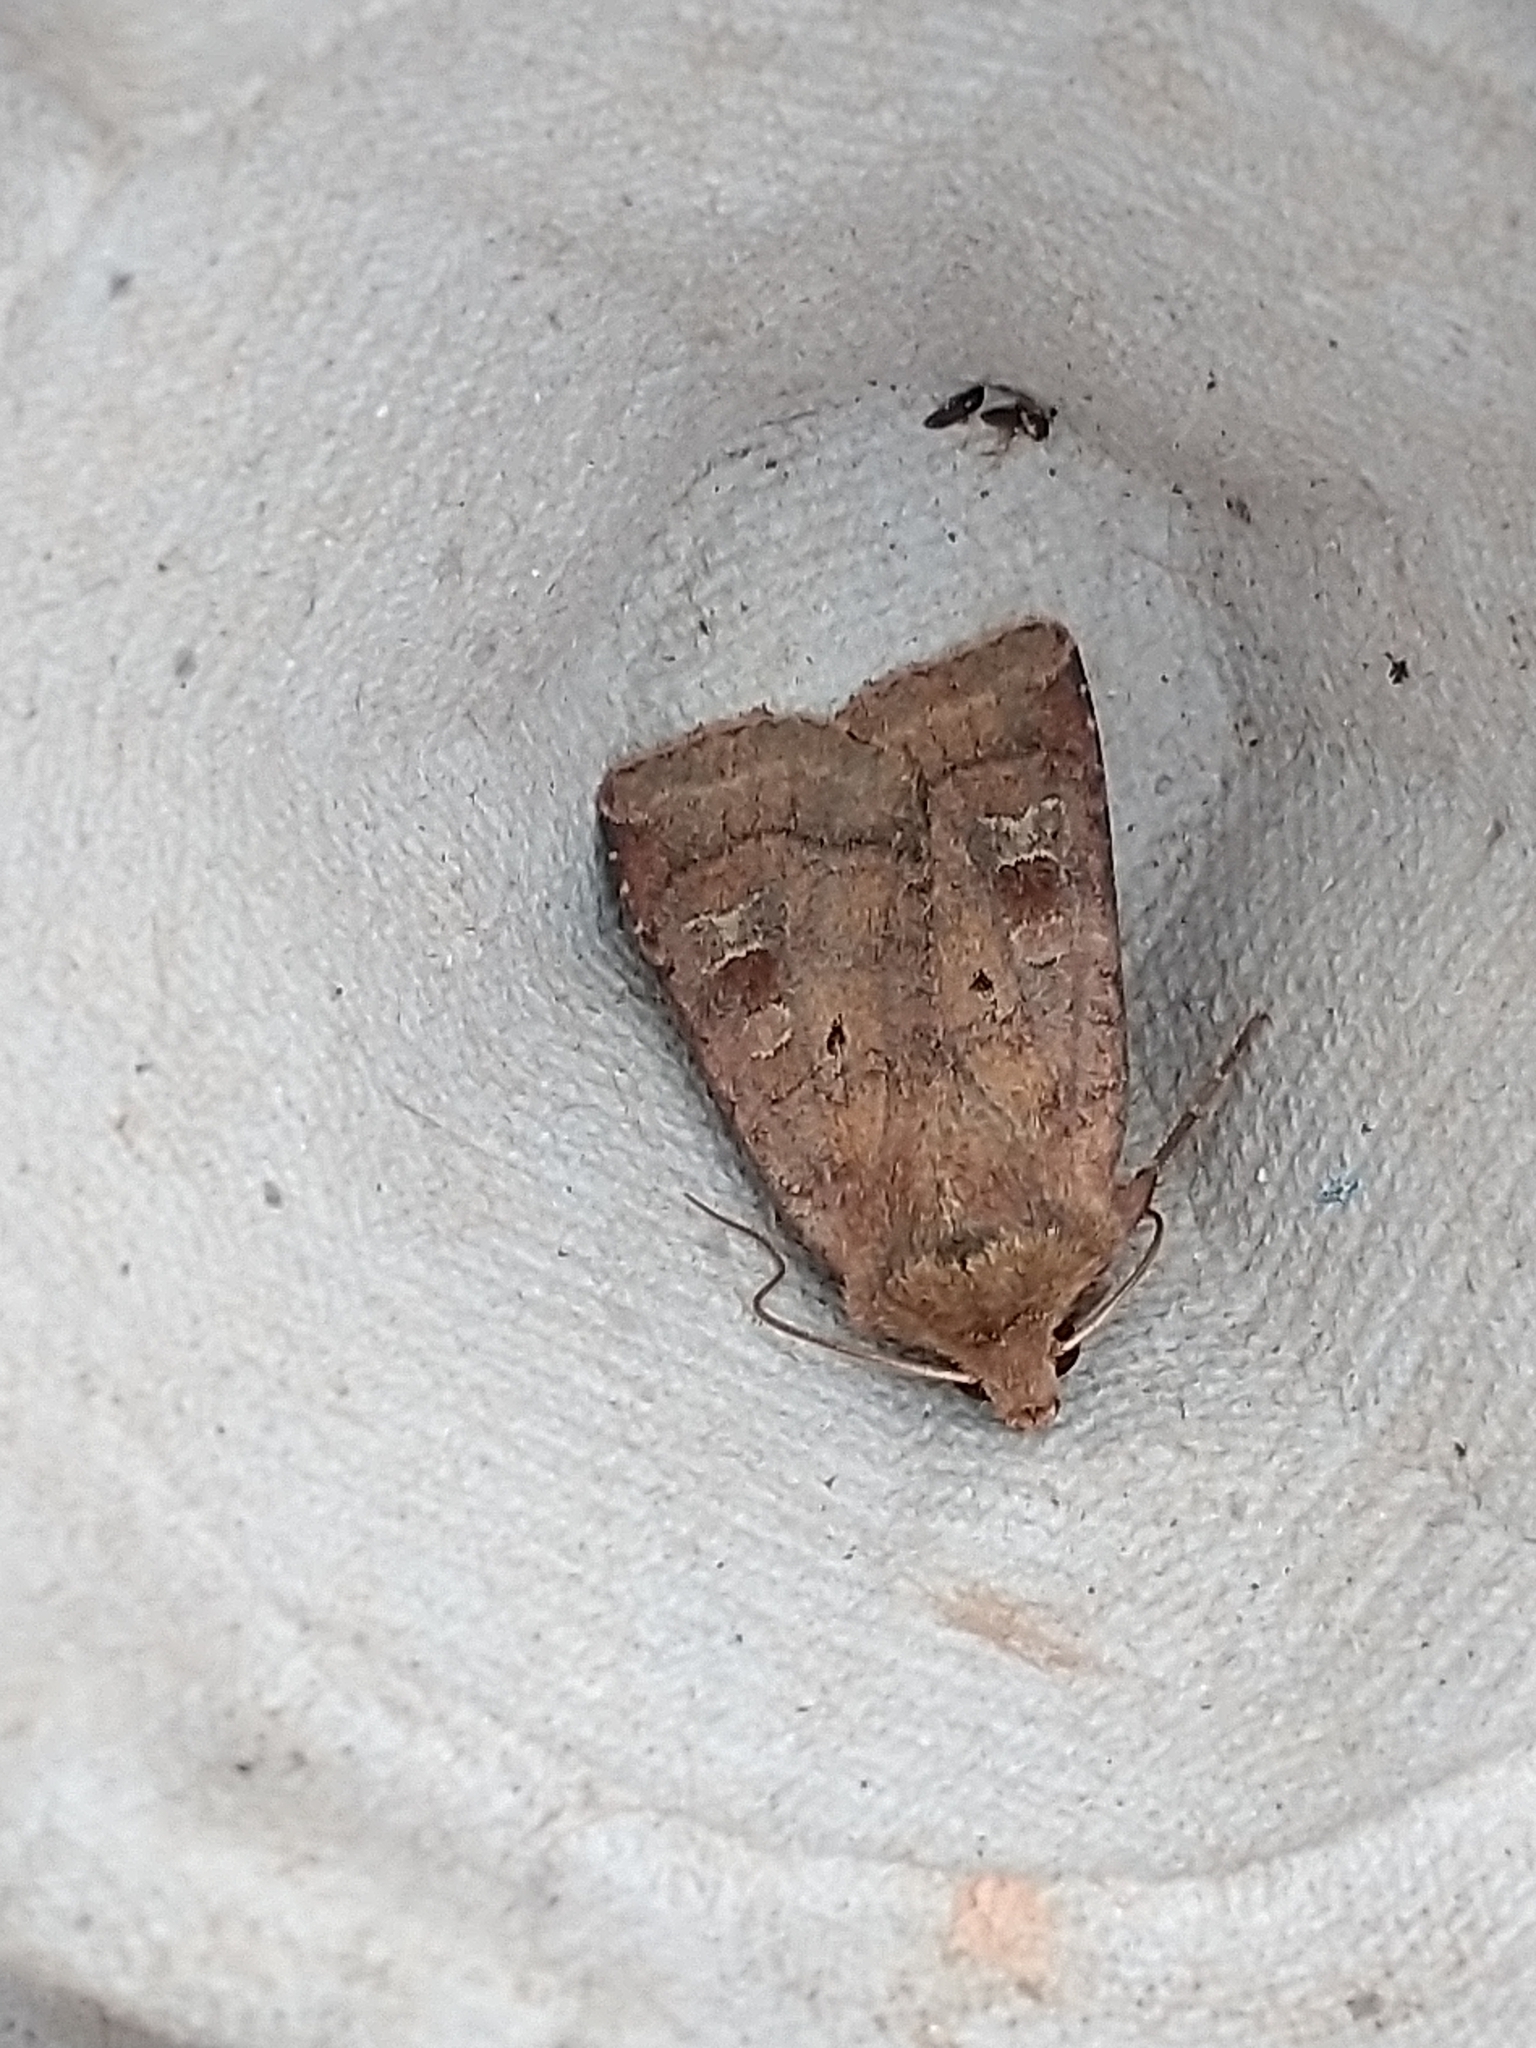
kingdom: Animalia
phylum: Arthropoda
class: Insecta
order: Lepidoptera
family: Noctuidae
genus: Diarsia
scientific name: Diarsia rubi
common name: Small square-spot
